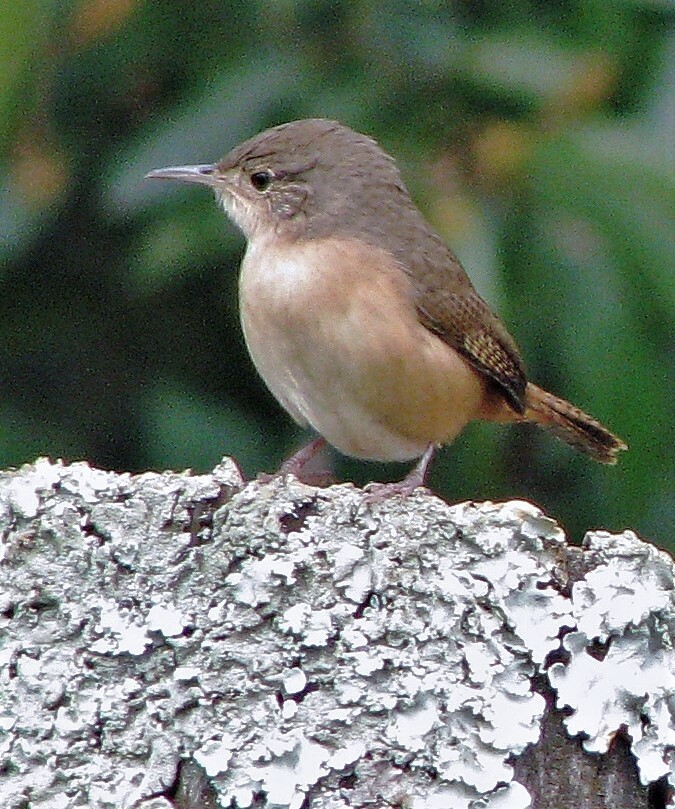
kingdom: Animalia
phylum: Chordata
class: Aves
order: Passeriformes
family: Troglodytidae
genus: Troglodytes
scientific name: Troglodytes aedon
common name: House wren
